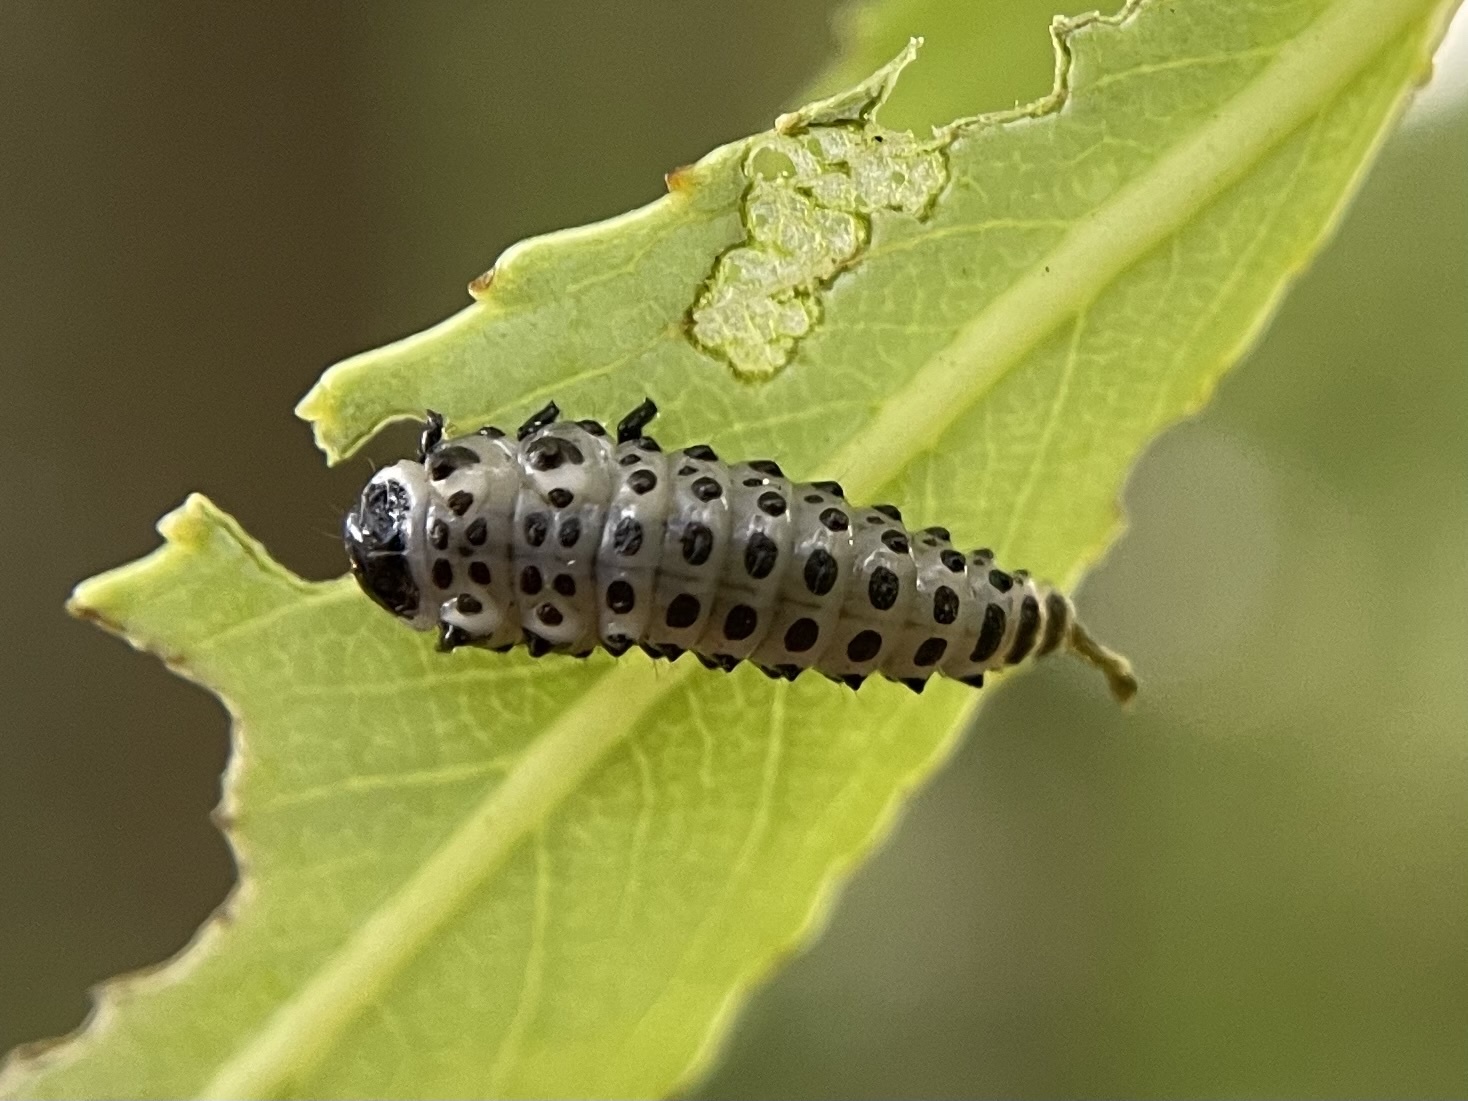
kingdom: Animalia
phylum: Arthropoda
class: Insecta
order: Coleoptera
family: Chrysomelidae
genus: Chrysomela
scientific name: Chrysomela vigintipunctata
